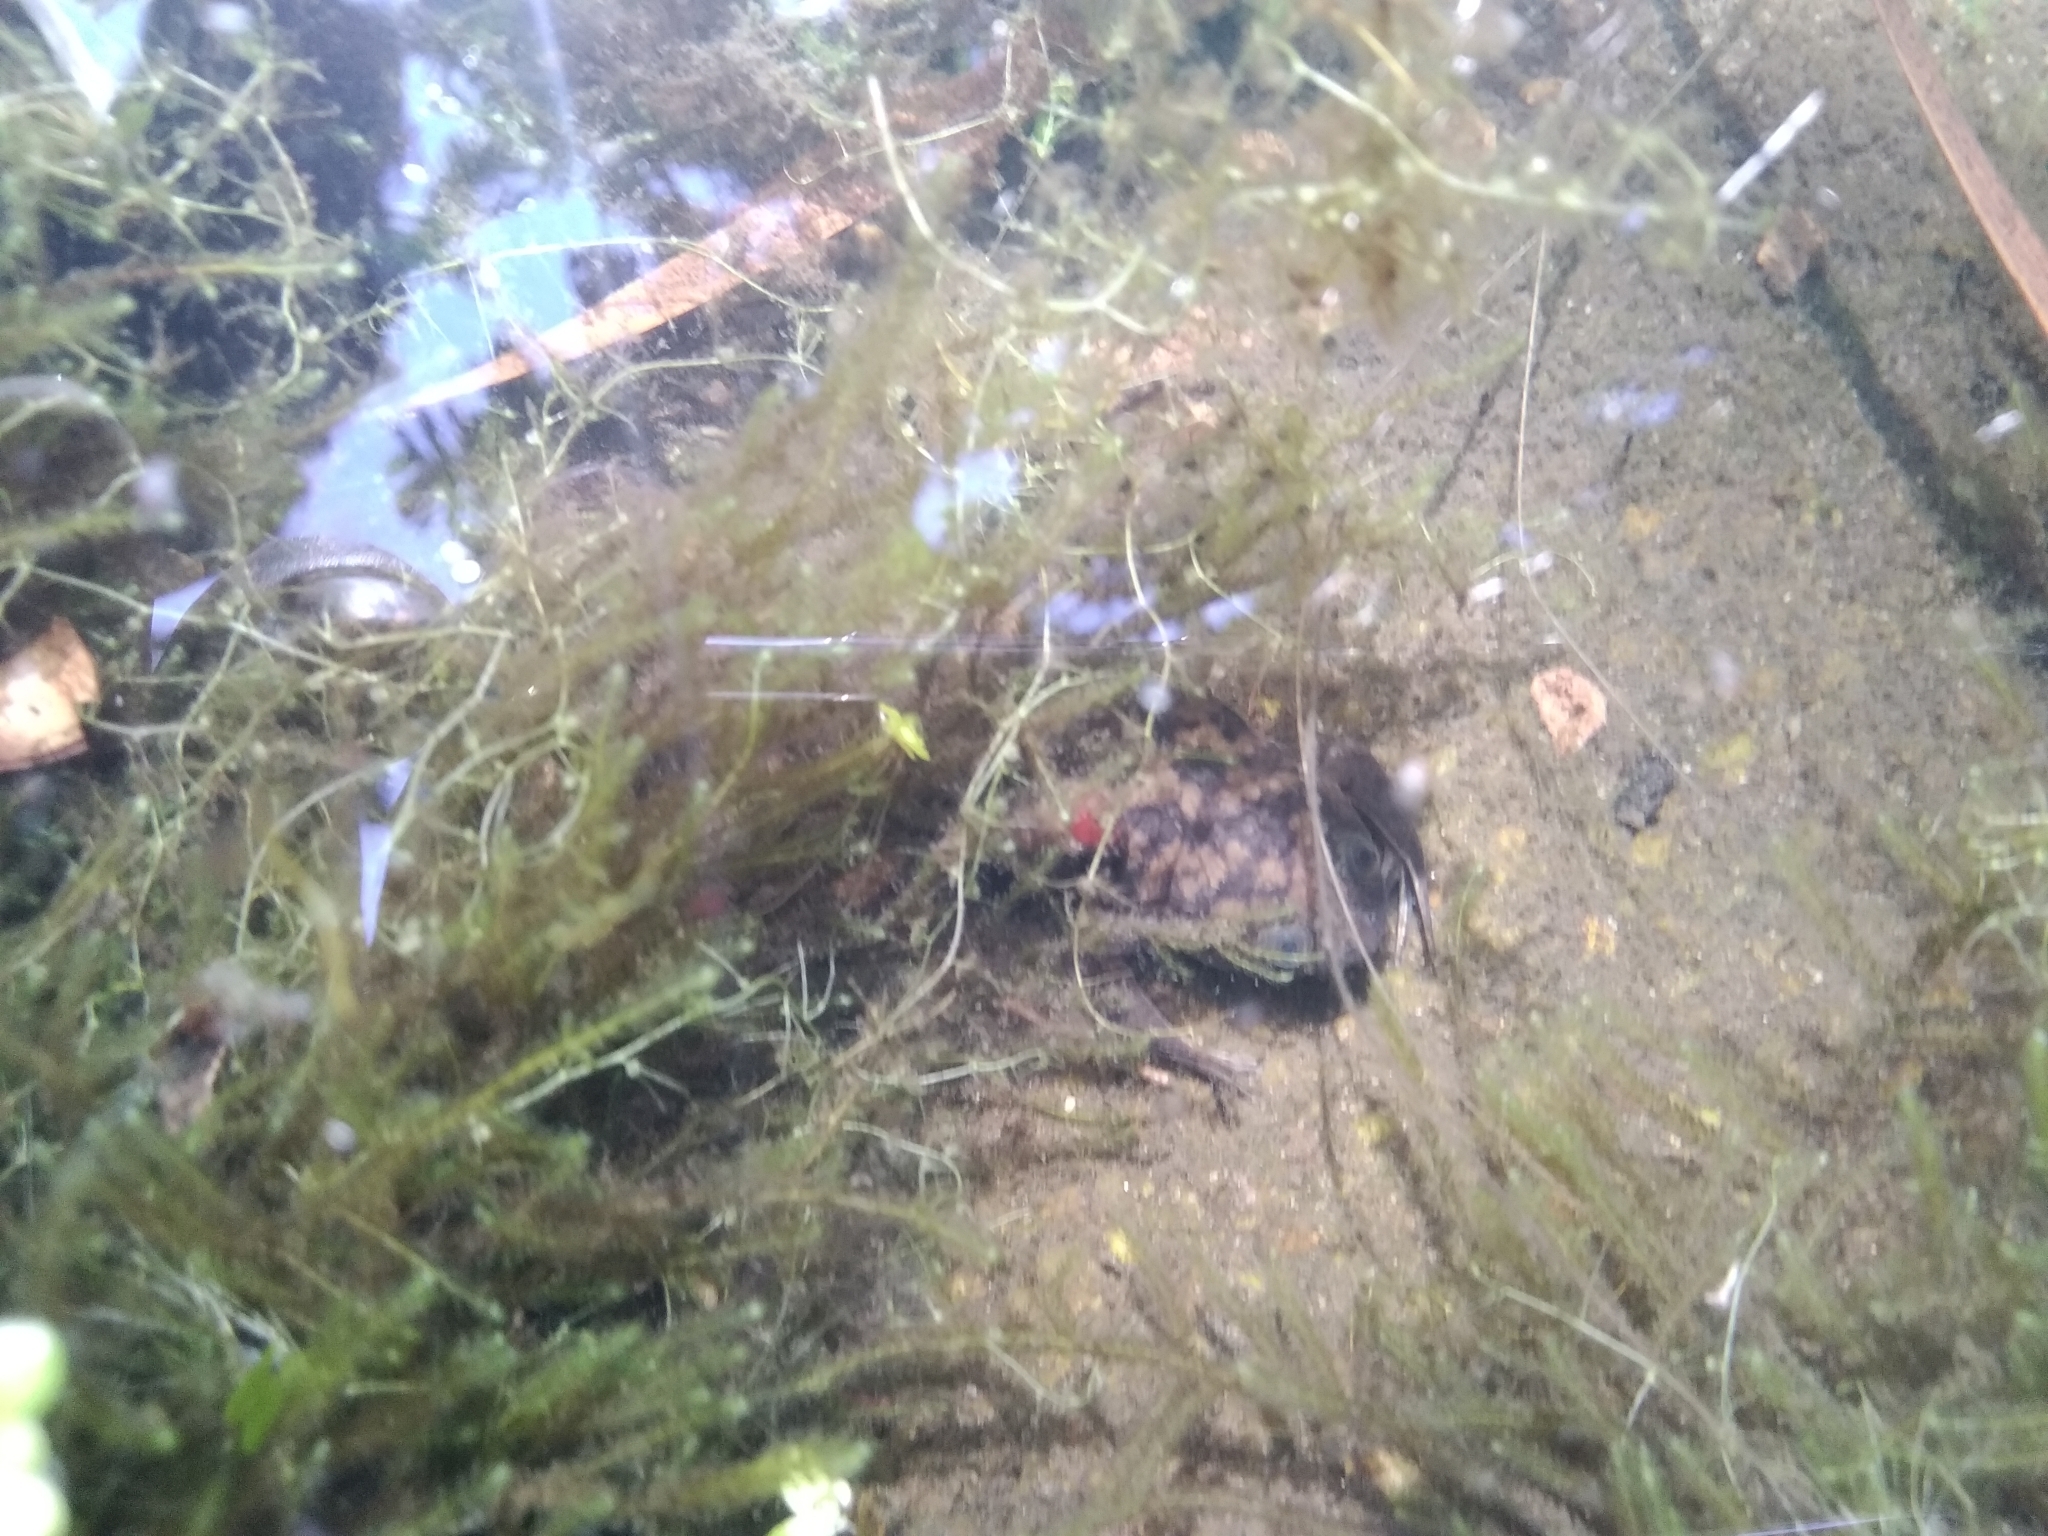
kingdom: Animalia
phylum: Chordata
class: Amphibia
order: Anura
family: Pipidae
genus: Xenopus
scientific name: Xenopus laevis
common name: African clawed frog
